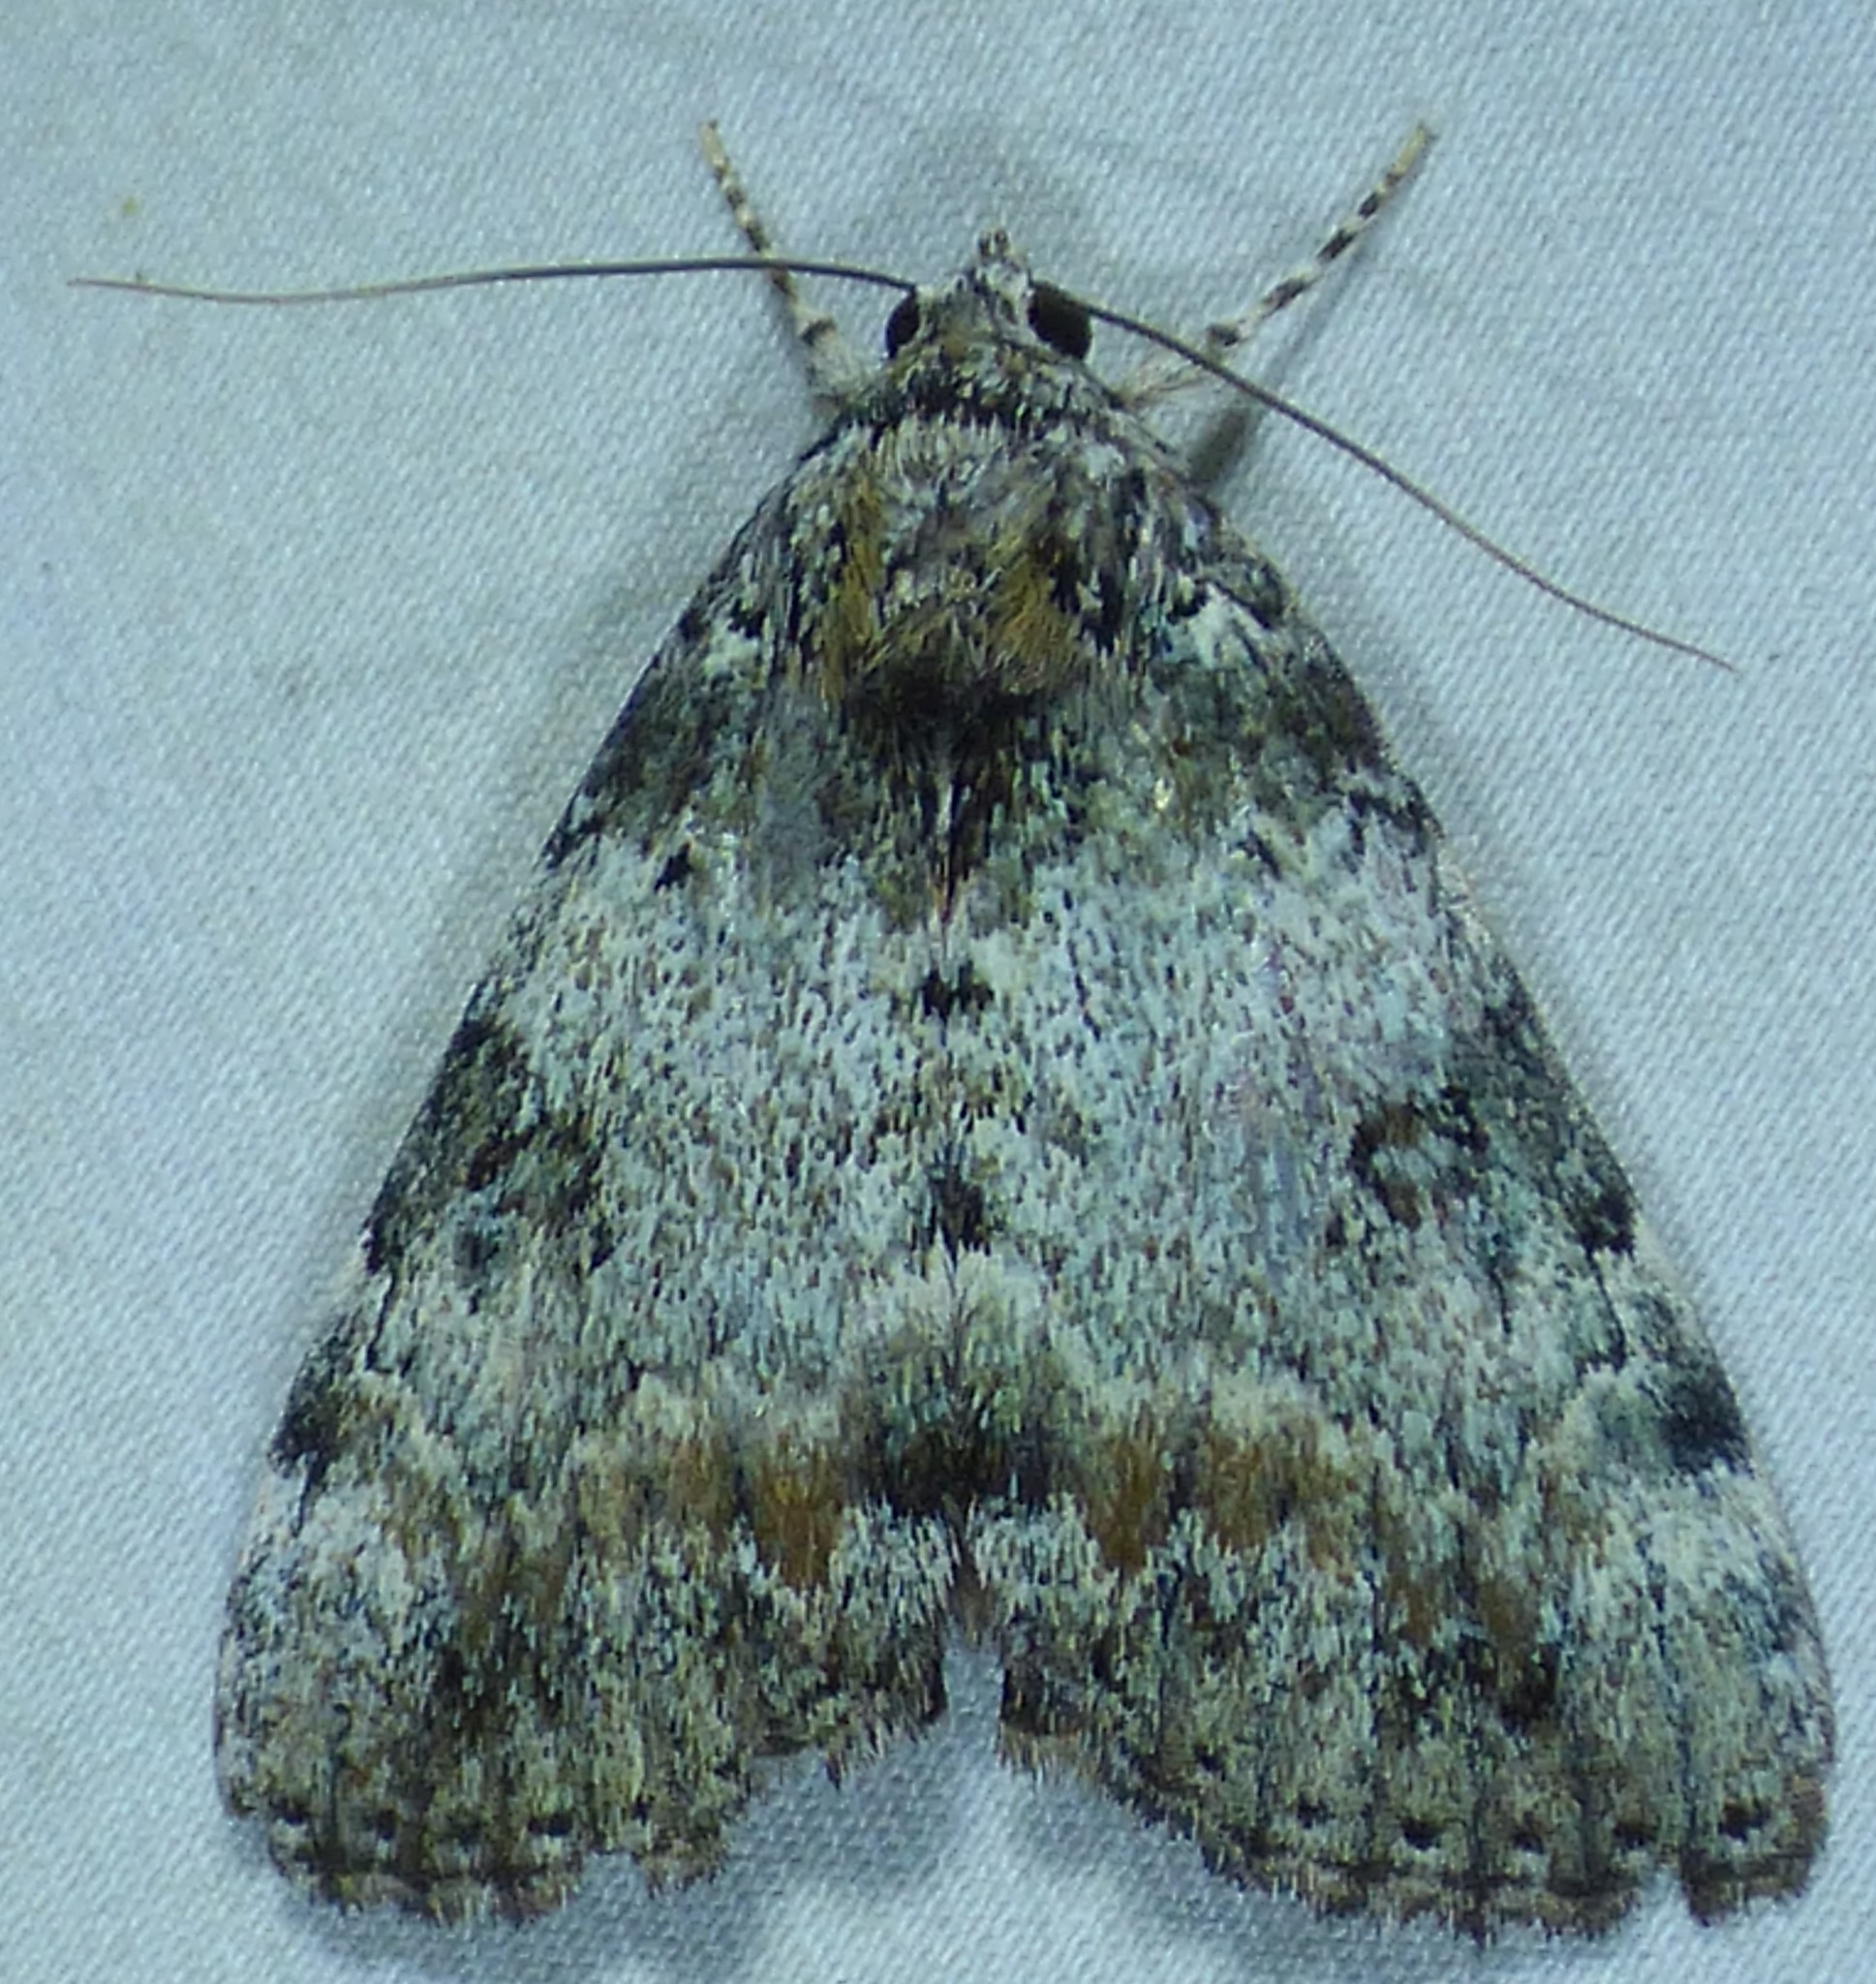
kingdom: Animalia
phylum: Arthropoda
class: Insecta
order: Lepidoptera
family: Erebidae
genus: Catocala
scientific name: Catocala connubialis
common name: Connubial underwing
